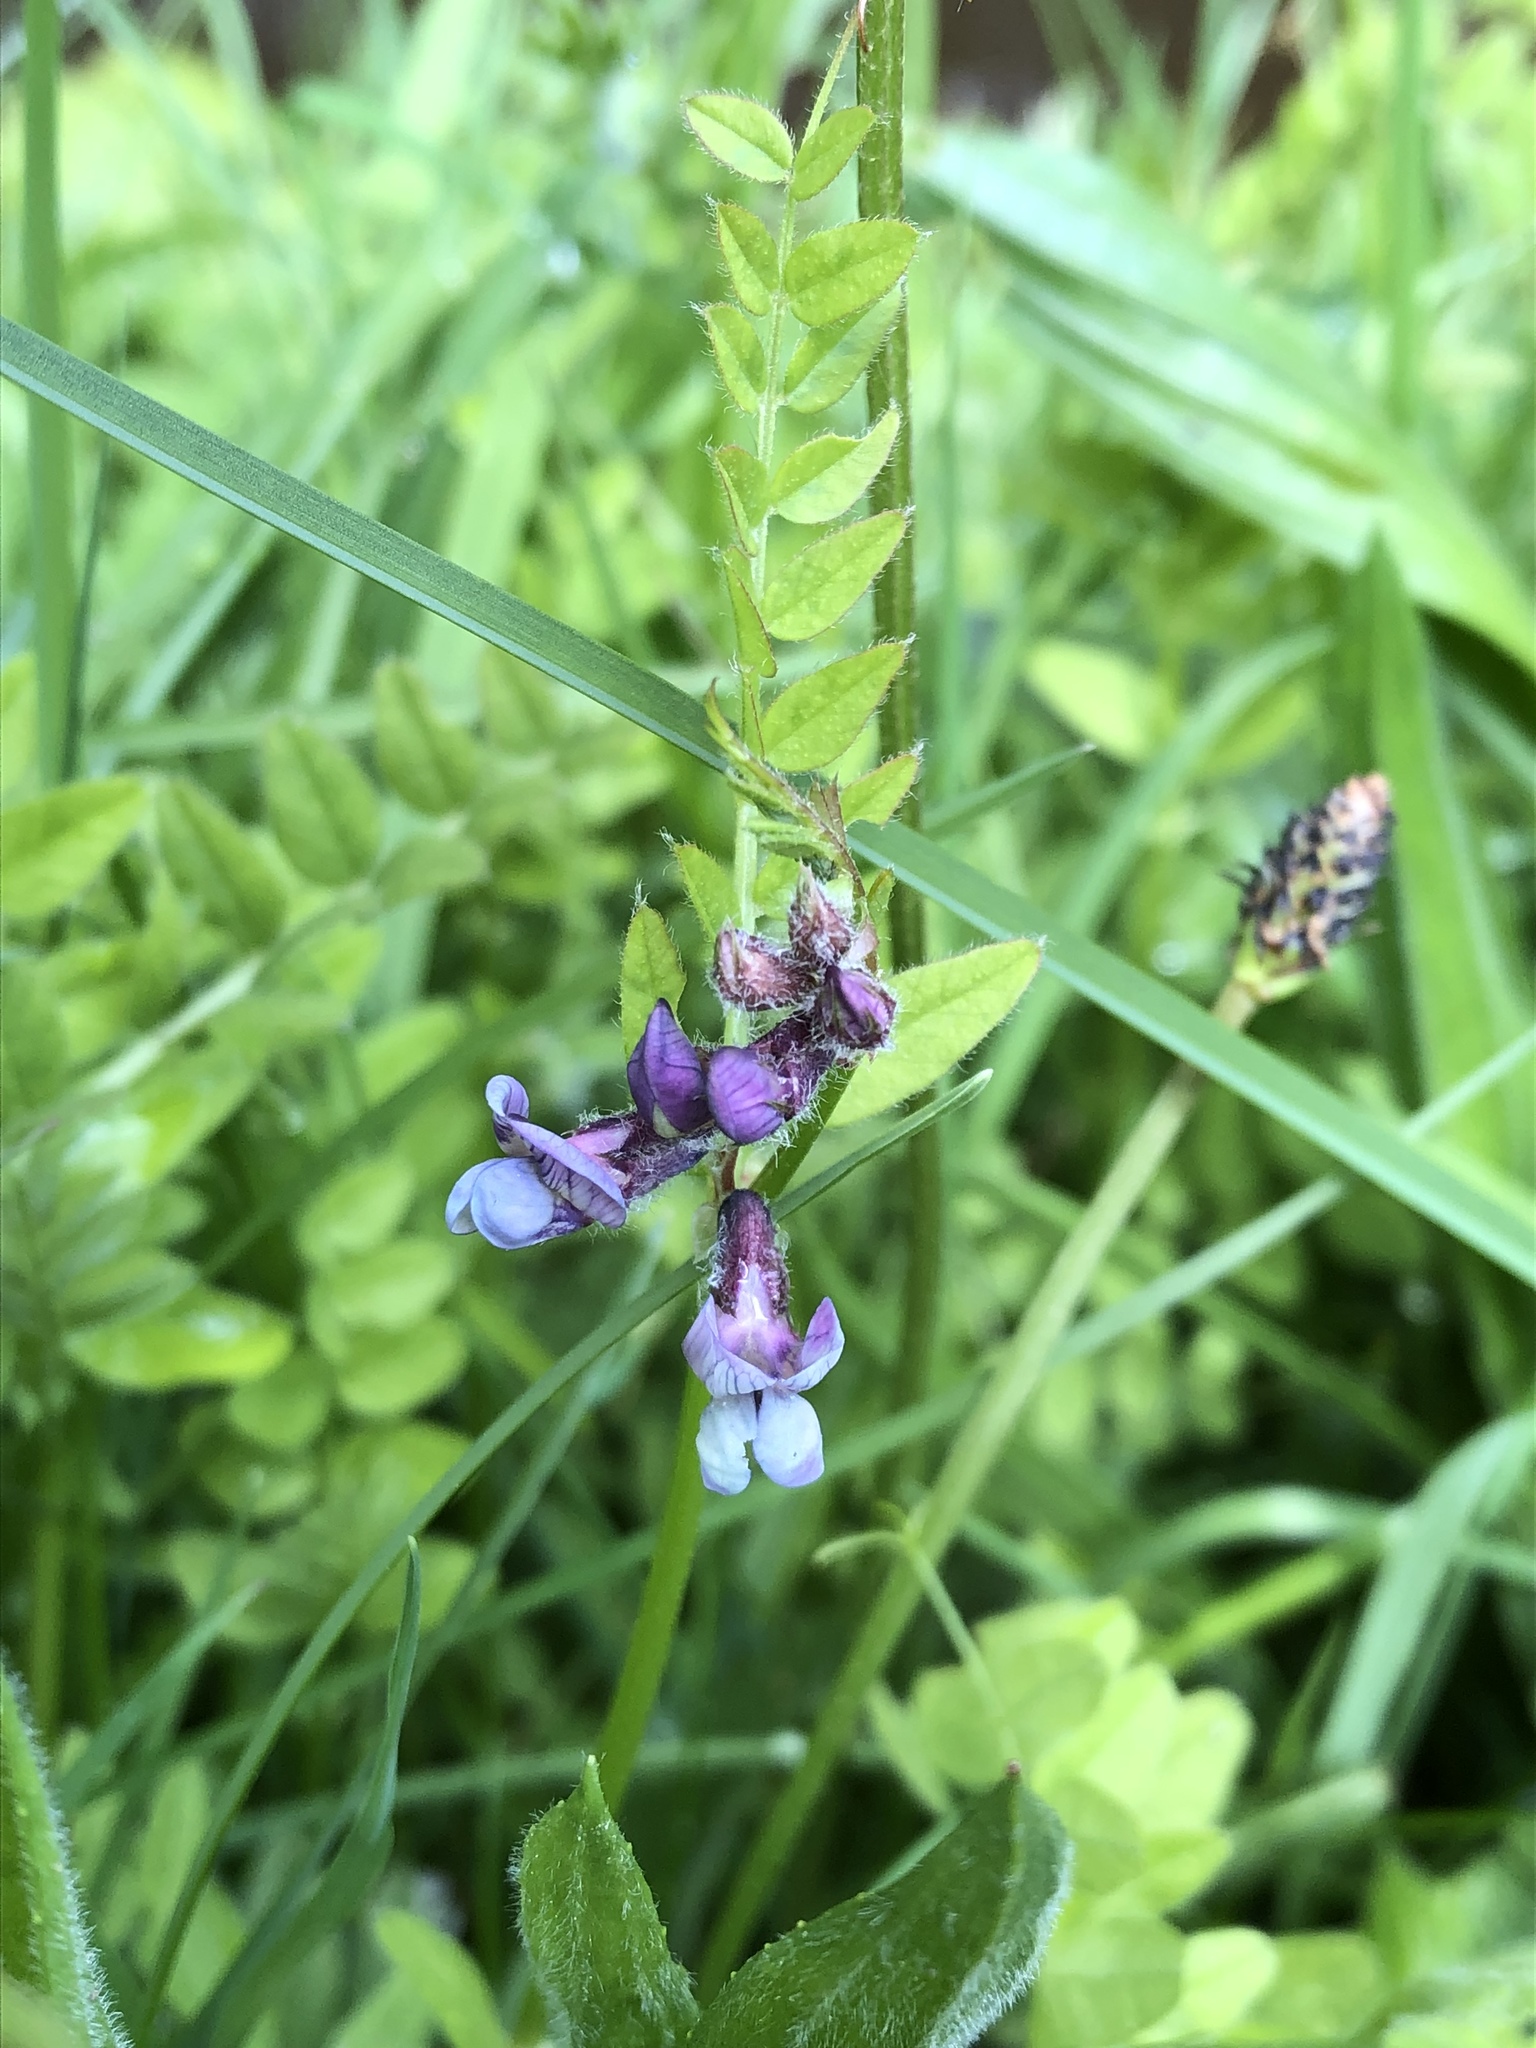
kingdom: Plantae
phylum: Tracheophyta
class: Magnoliopsida
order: Fabales
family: Fabaceae
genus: Vicia
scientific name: Vicia sepium
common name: Bush vetch
